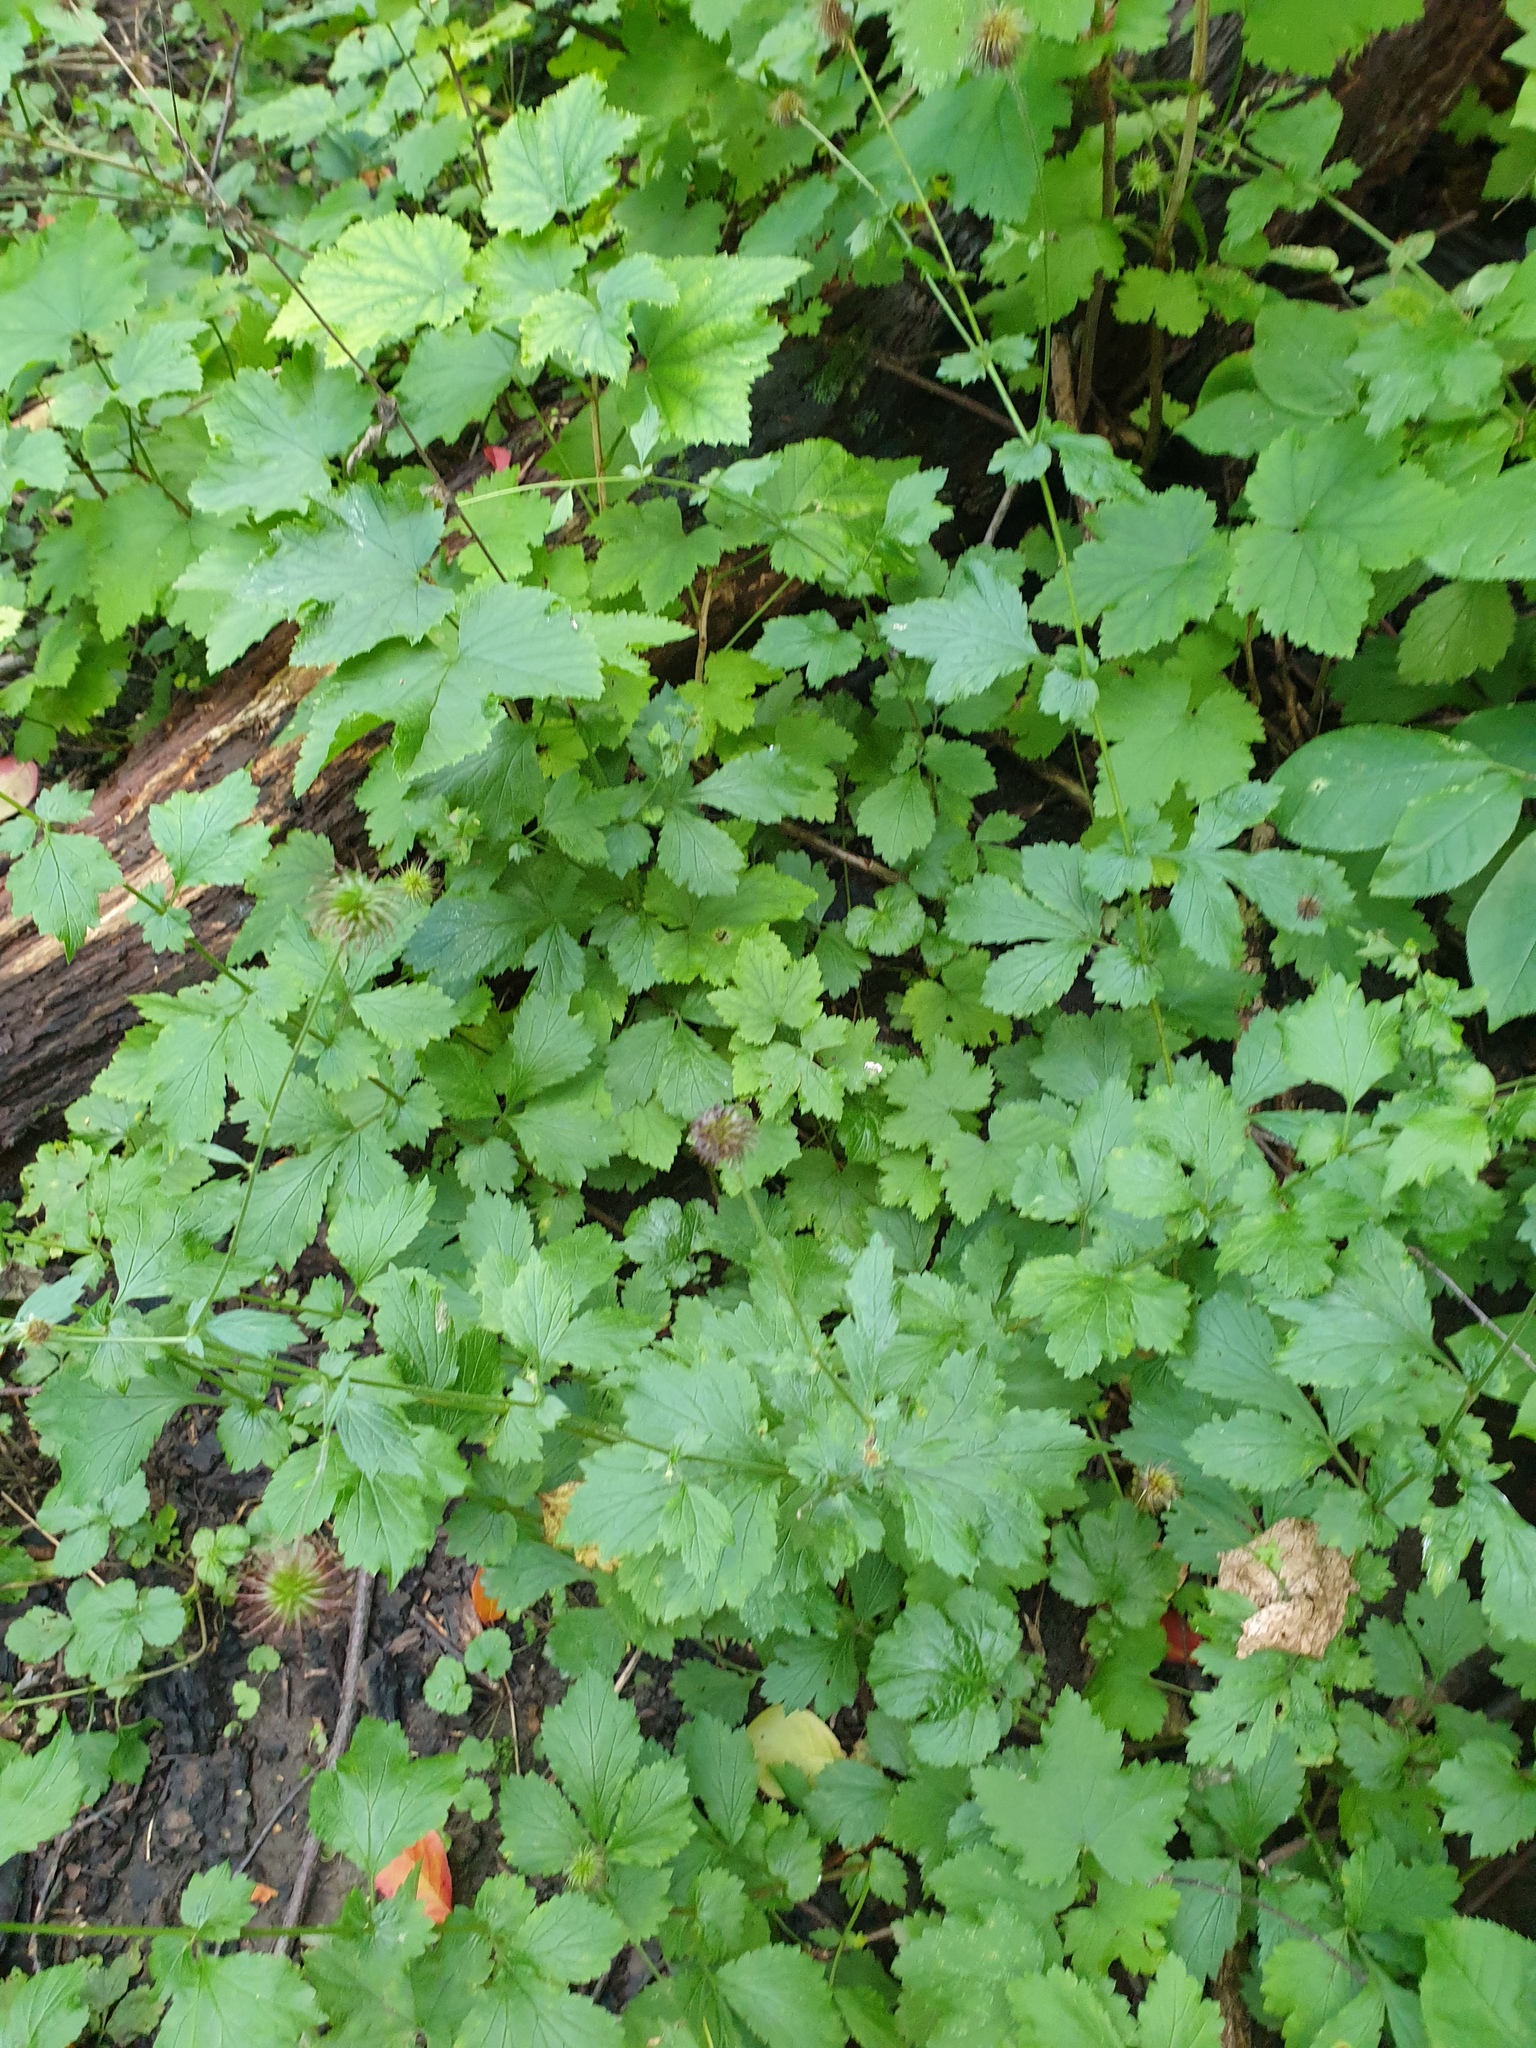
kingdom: Plantae
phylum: Tracheophyta
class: Magnoliopsida
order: Rosales
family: Rosaceae
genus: Geum
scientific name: Geum urbanum
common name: Wood avens
